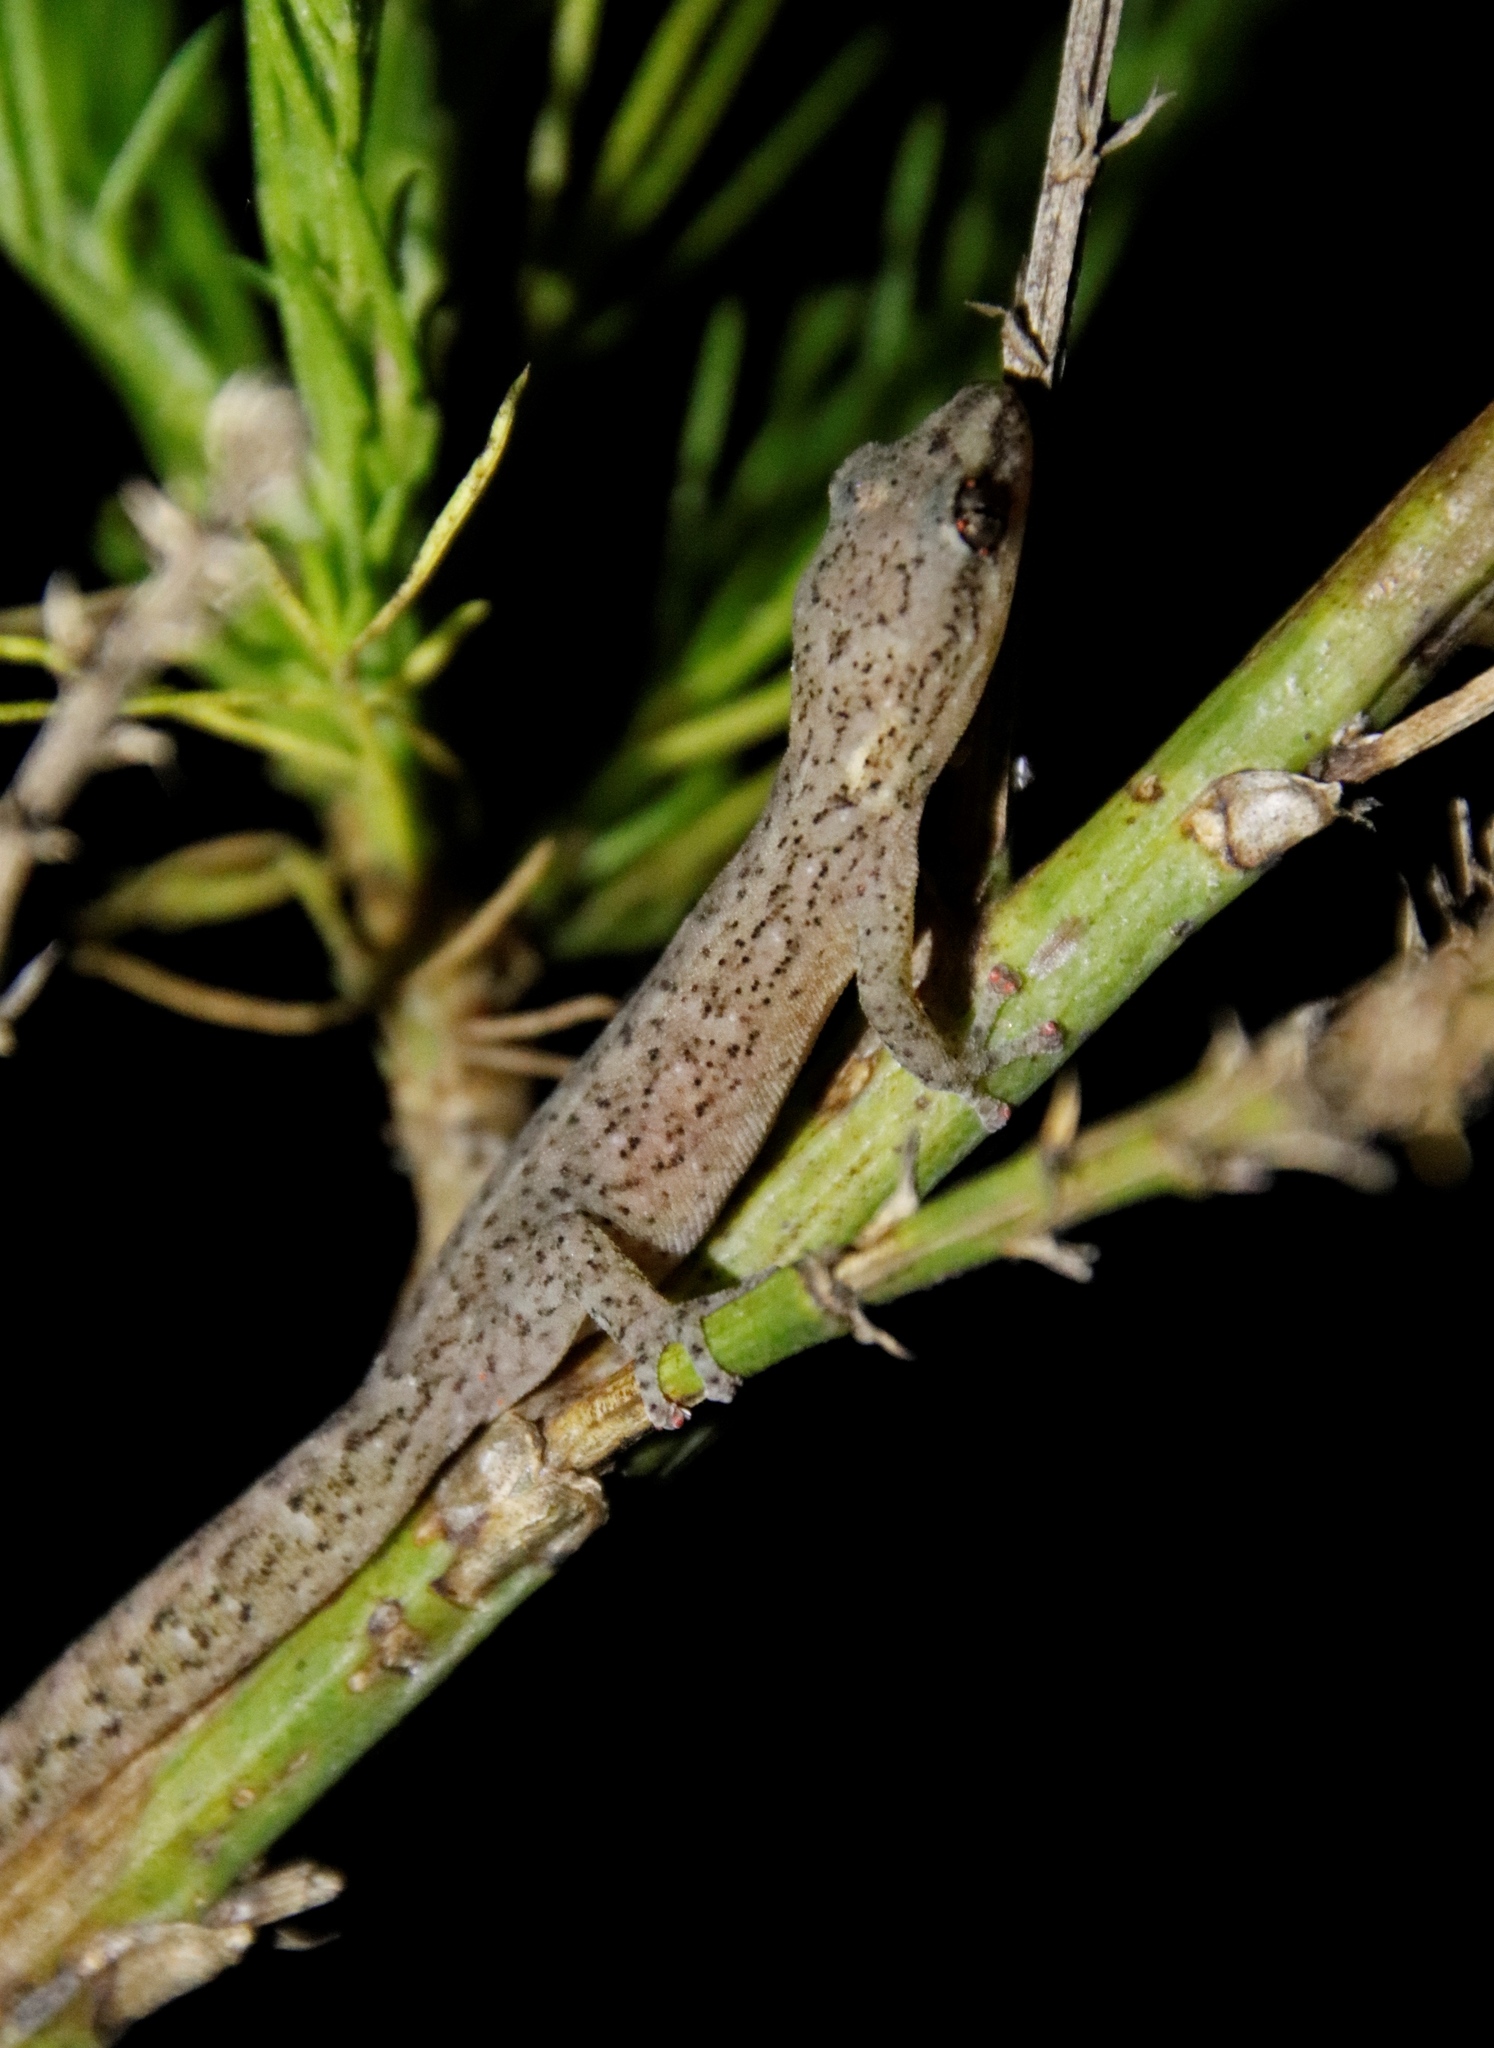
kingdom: Animalia
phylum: Chordata
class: Squamata
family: Gekkonidae
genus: Afrogecko
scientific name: Afrogecko porphyreus
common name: Marbled leaf-toed gecko
